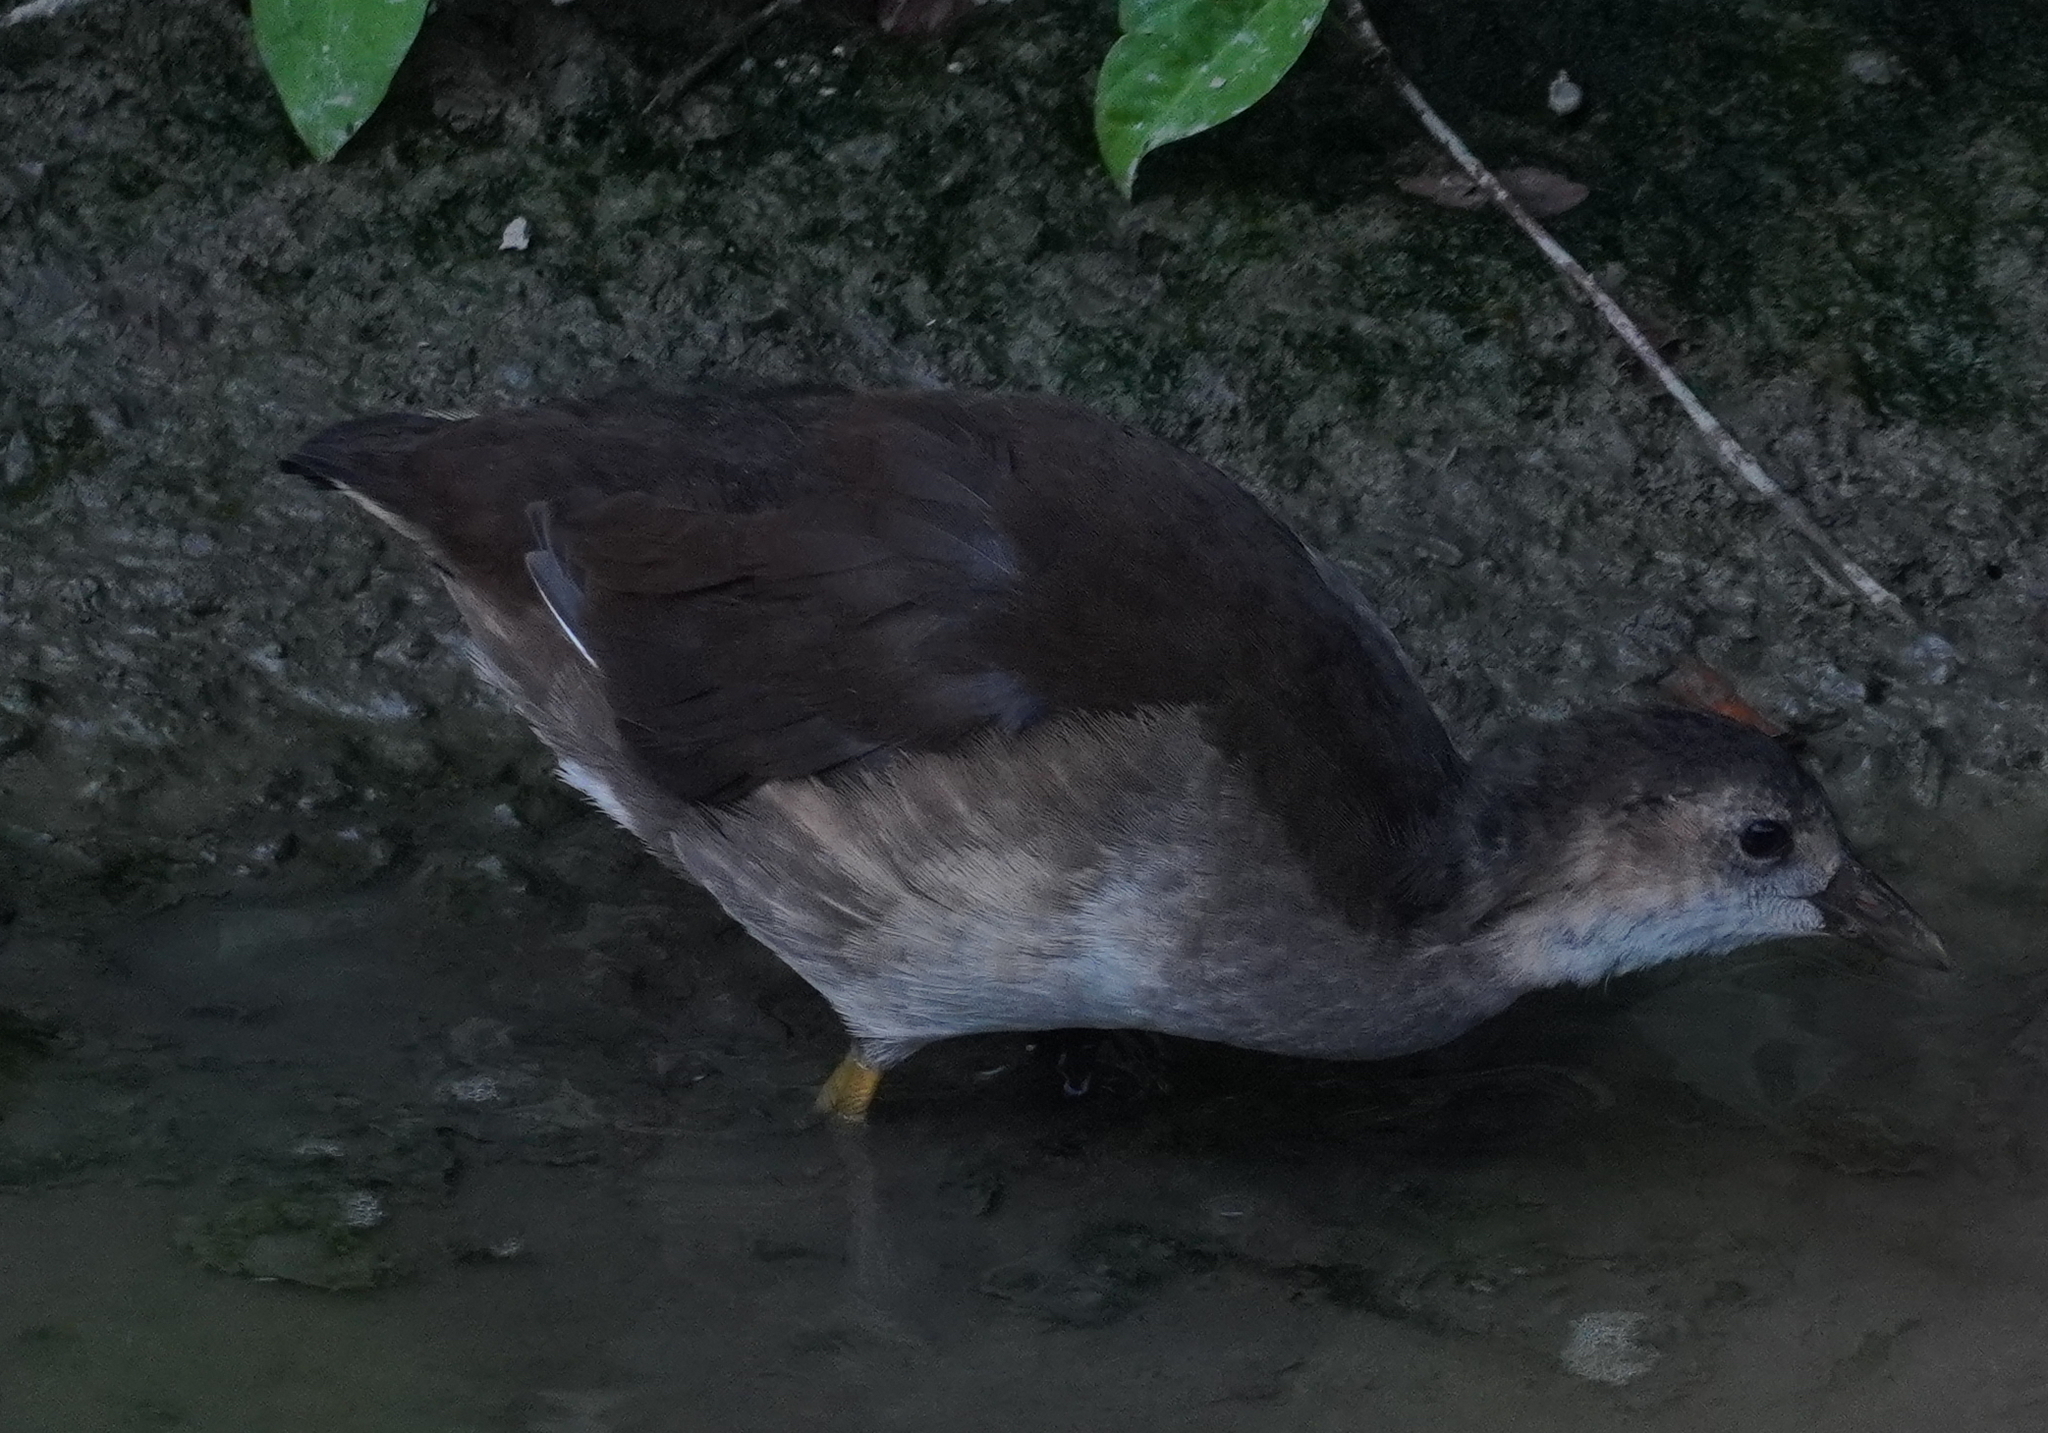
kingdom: Animalia
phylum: Chordata
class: Aves
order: Gruiformes
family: Rallidae
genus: Gallinula
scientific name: Gallinula chloropus
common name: Common moorhen
